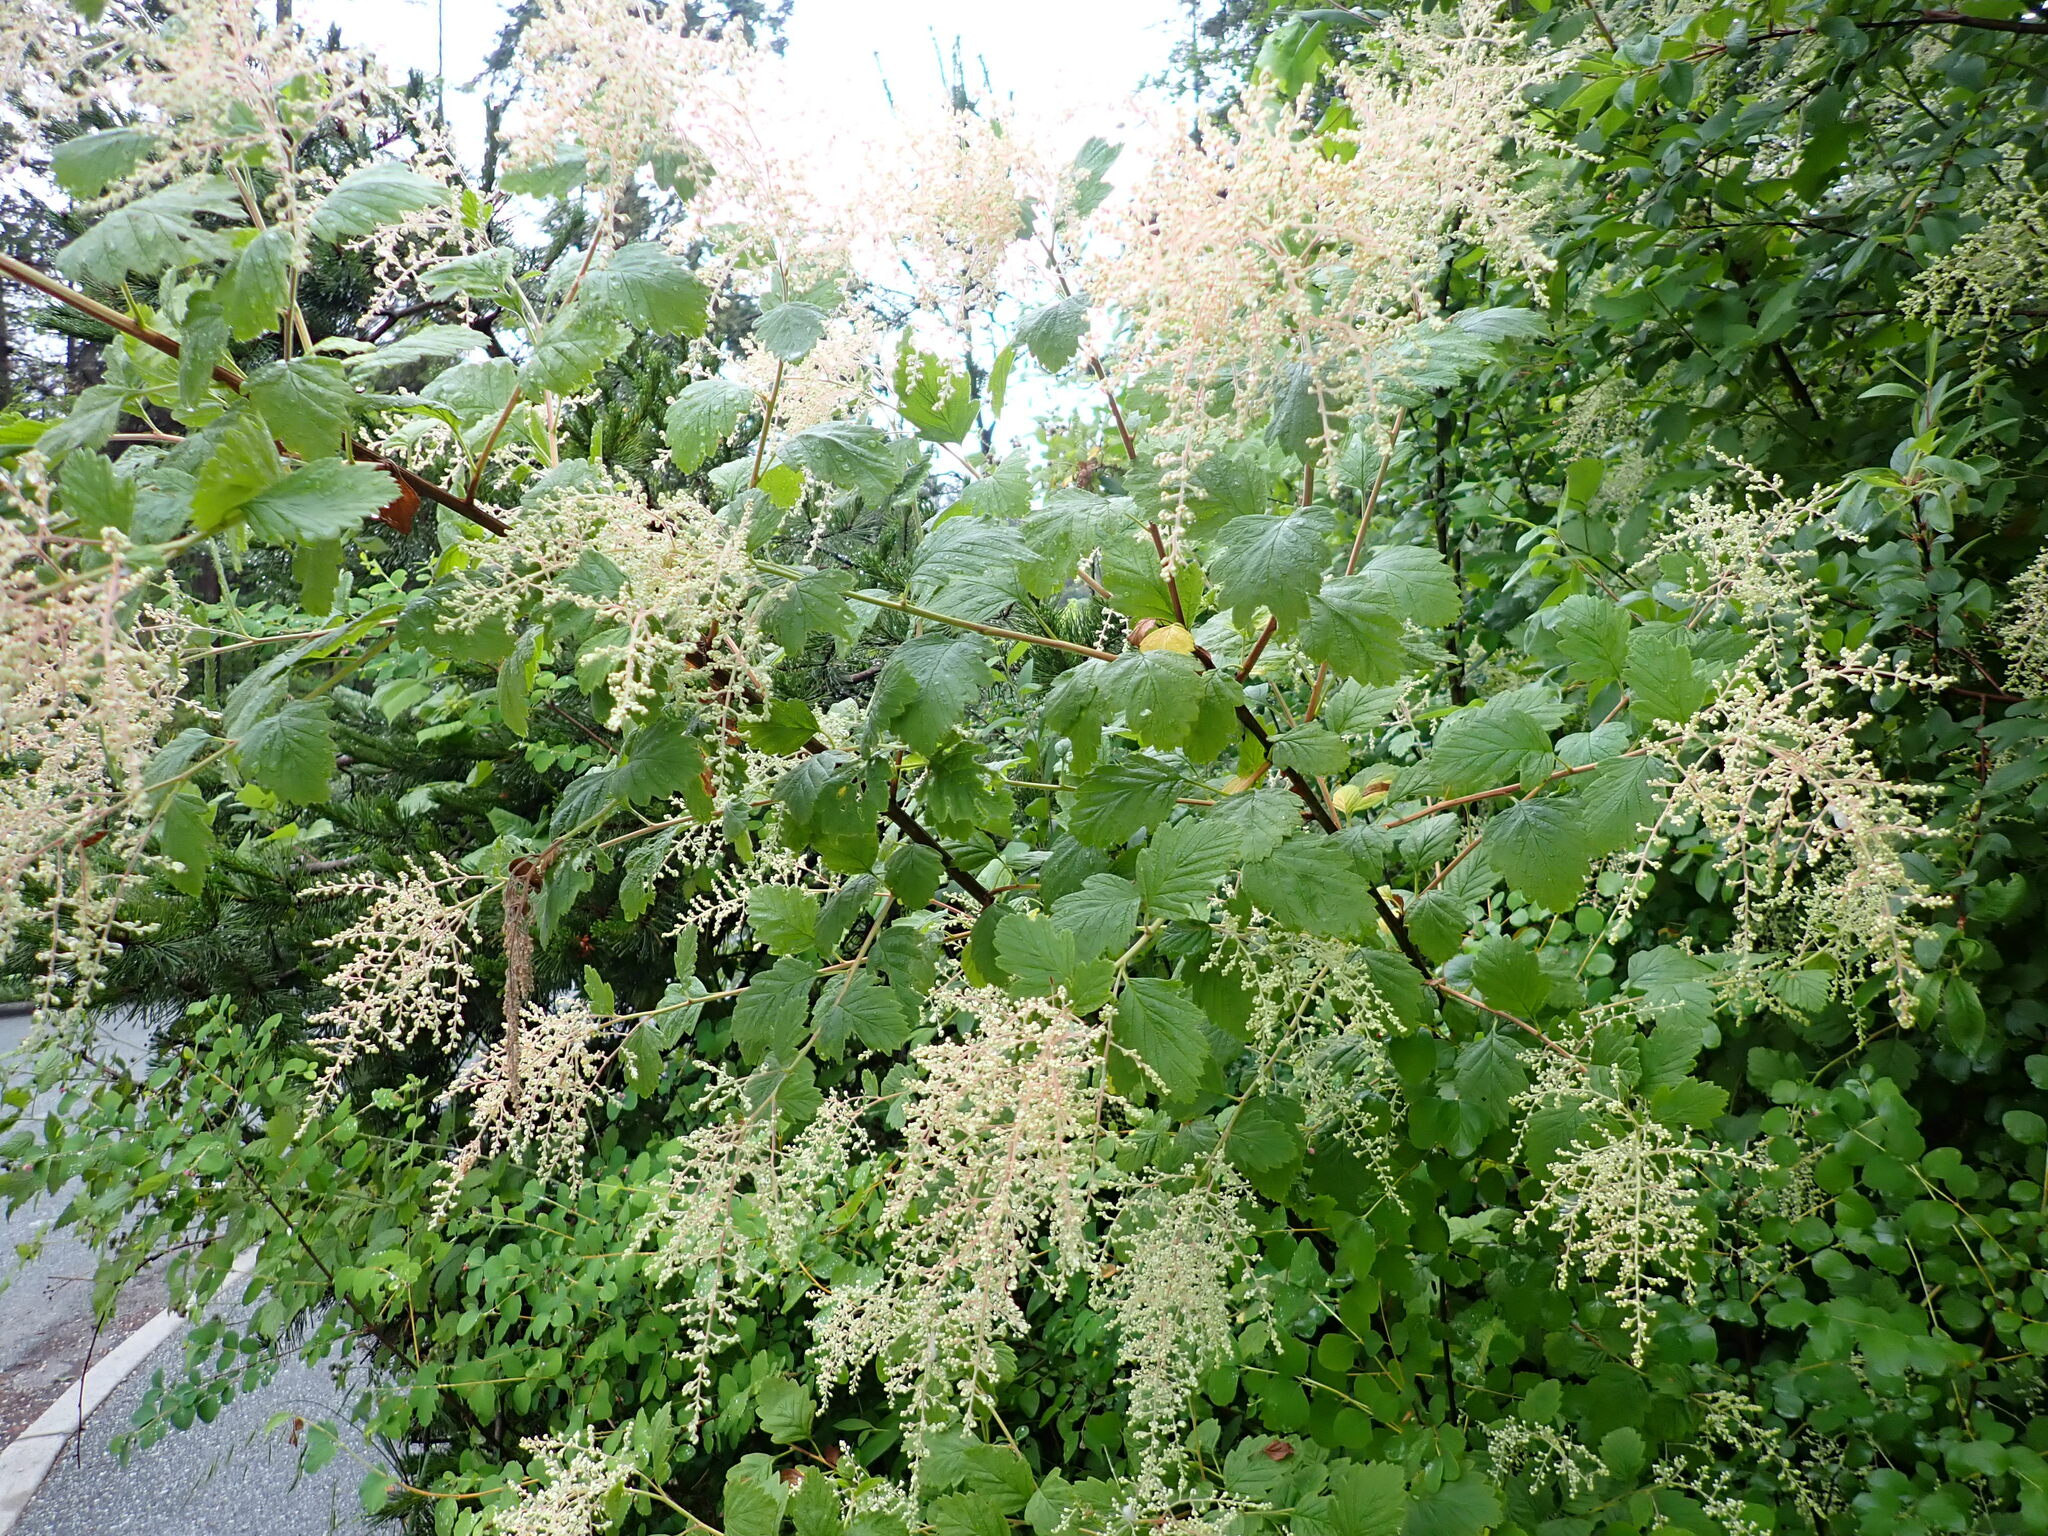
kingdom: Plantae
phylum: Tracheophyta
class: Magnoliopsida
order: Rosales
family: Rosaceae
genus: Holodiscus
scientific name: Holodiscus discolor
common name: Oceanspray
